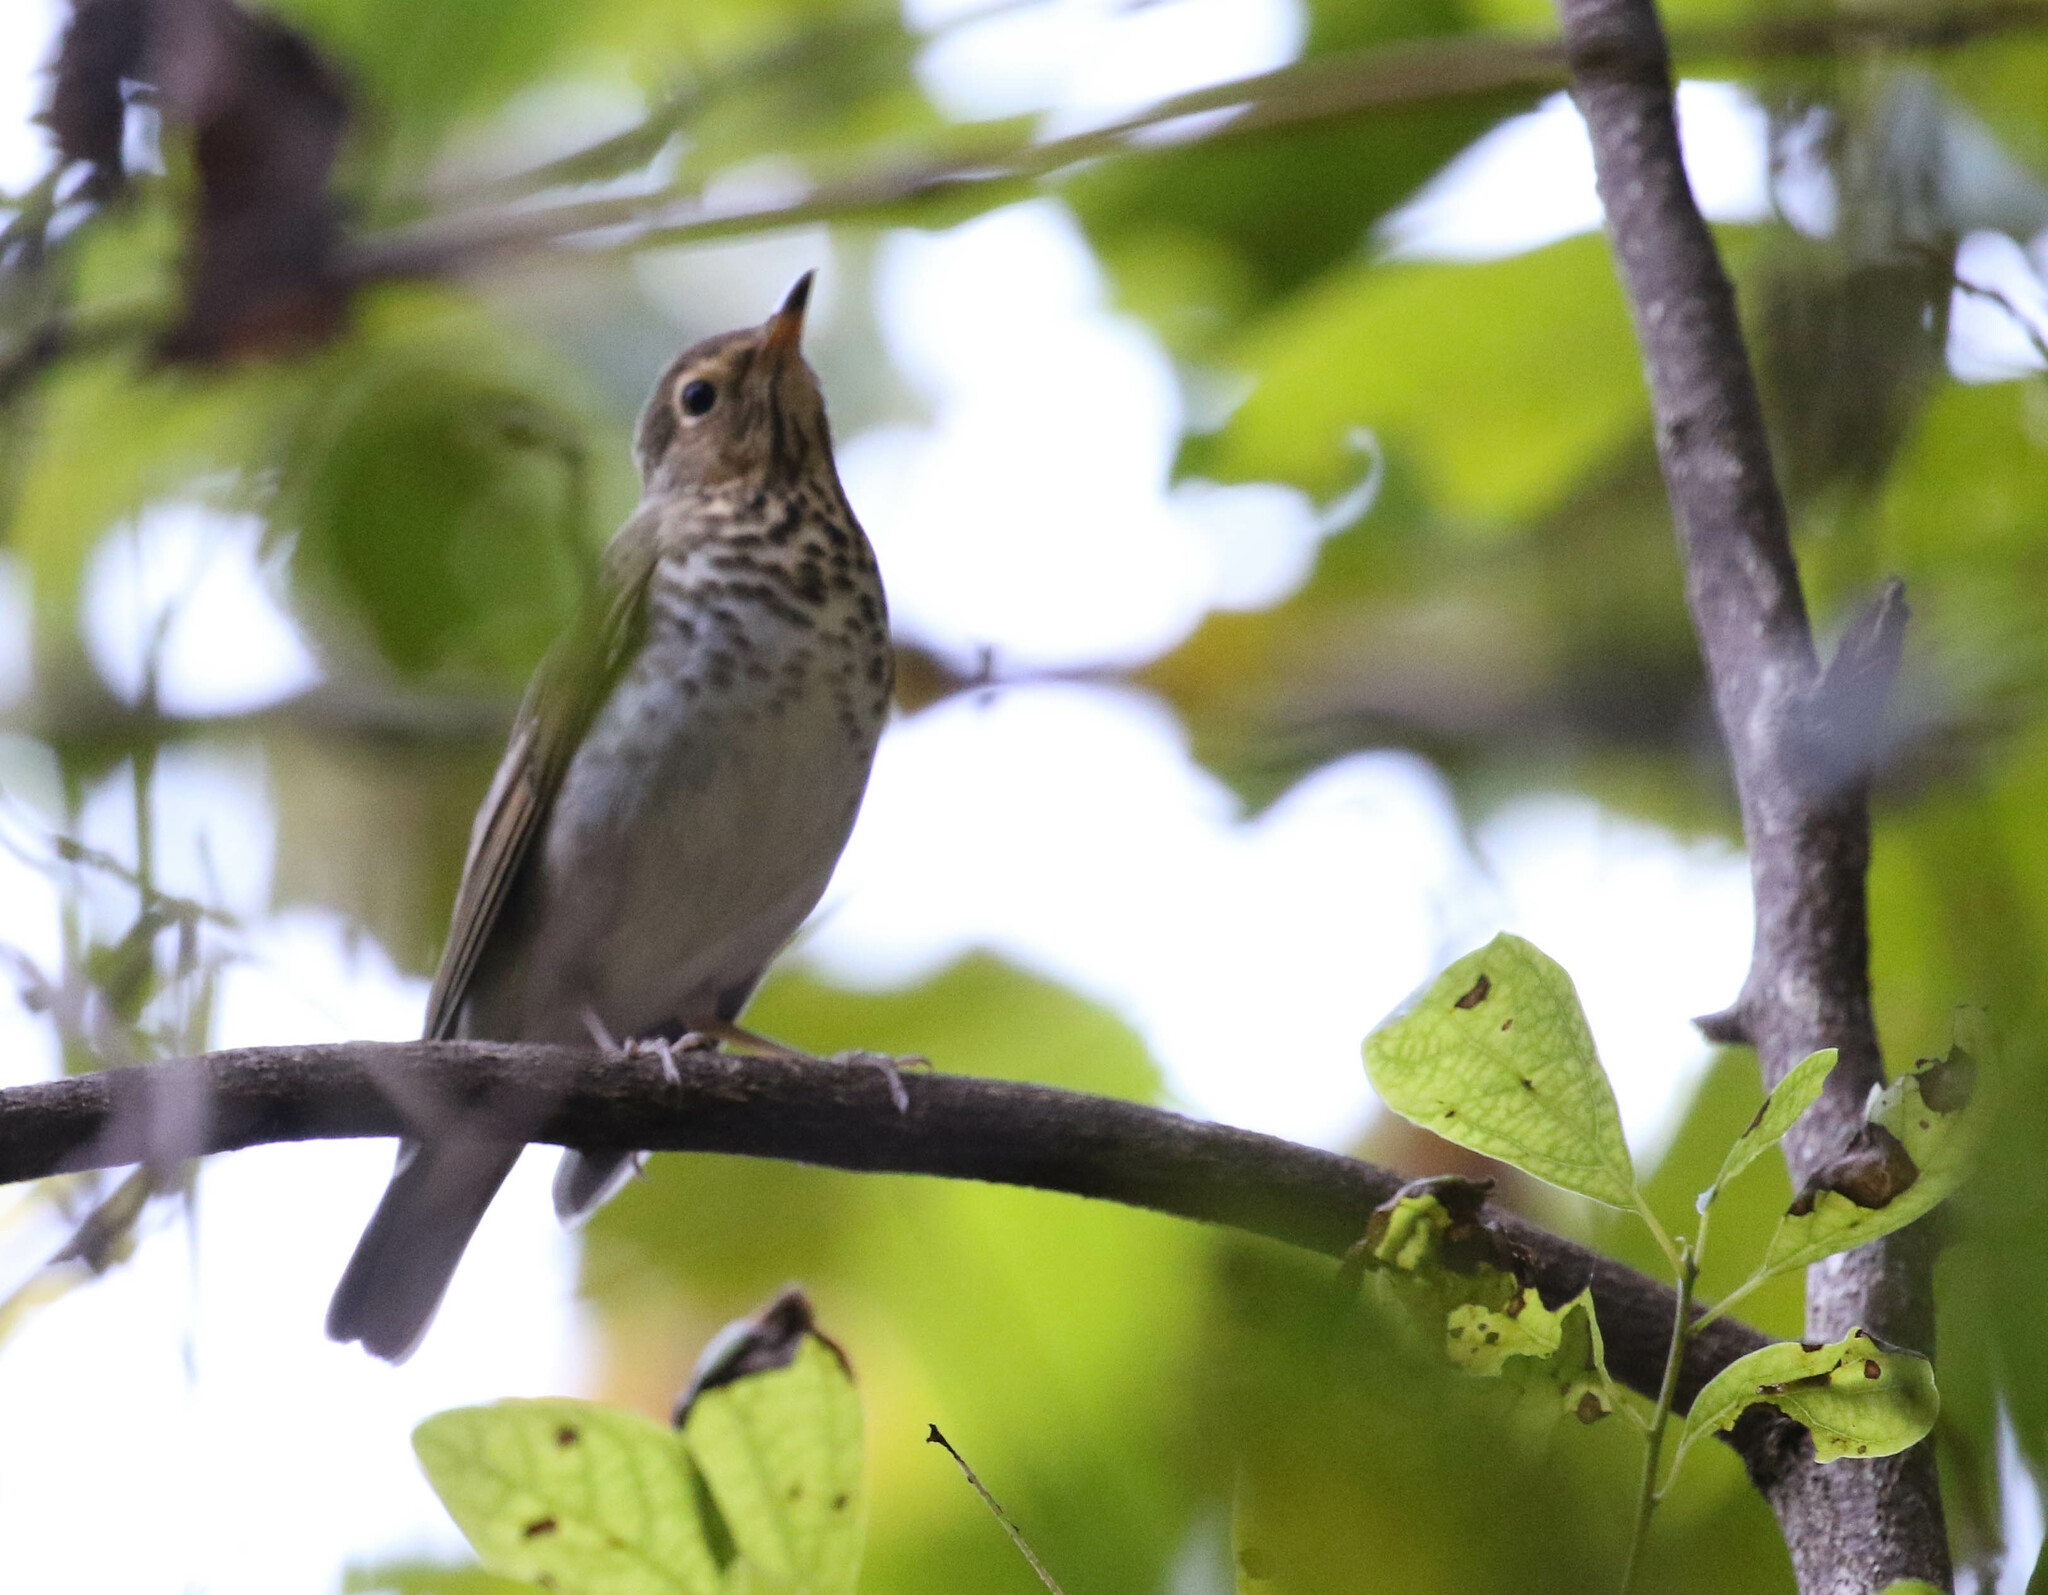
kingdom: Animalia
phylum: Chordata
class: Aves
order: Passeriformes
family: Turdidae
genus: Catharus
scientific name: Catharus ustulatus
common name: Swainson's thrush
